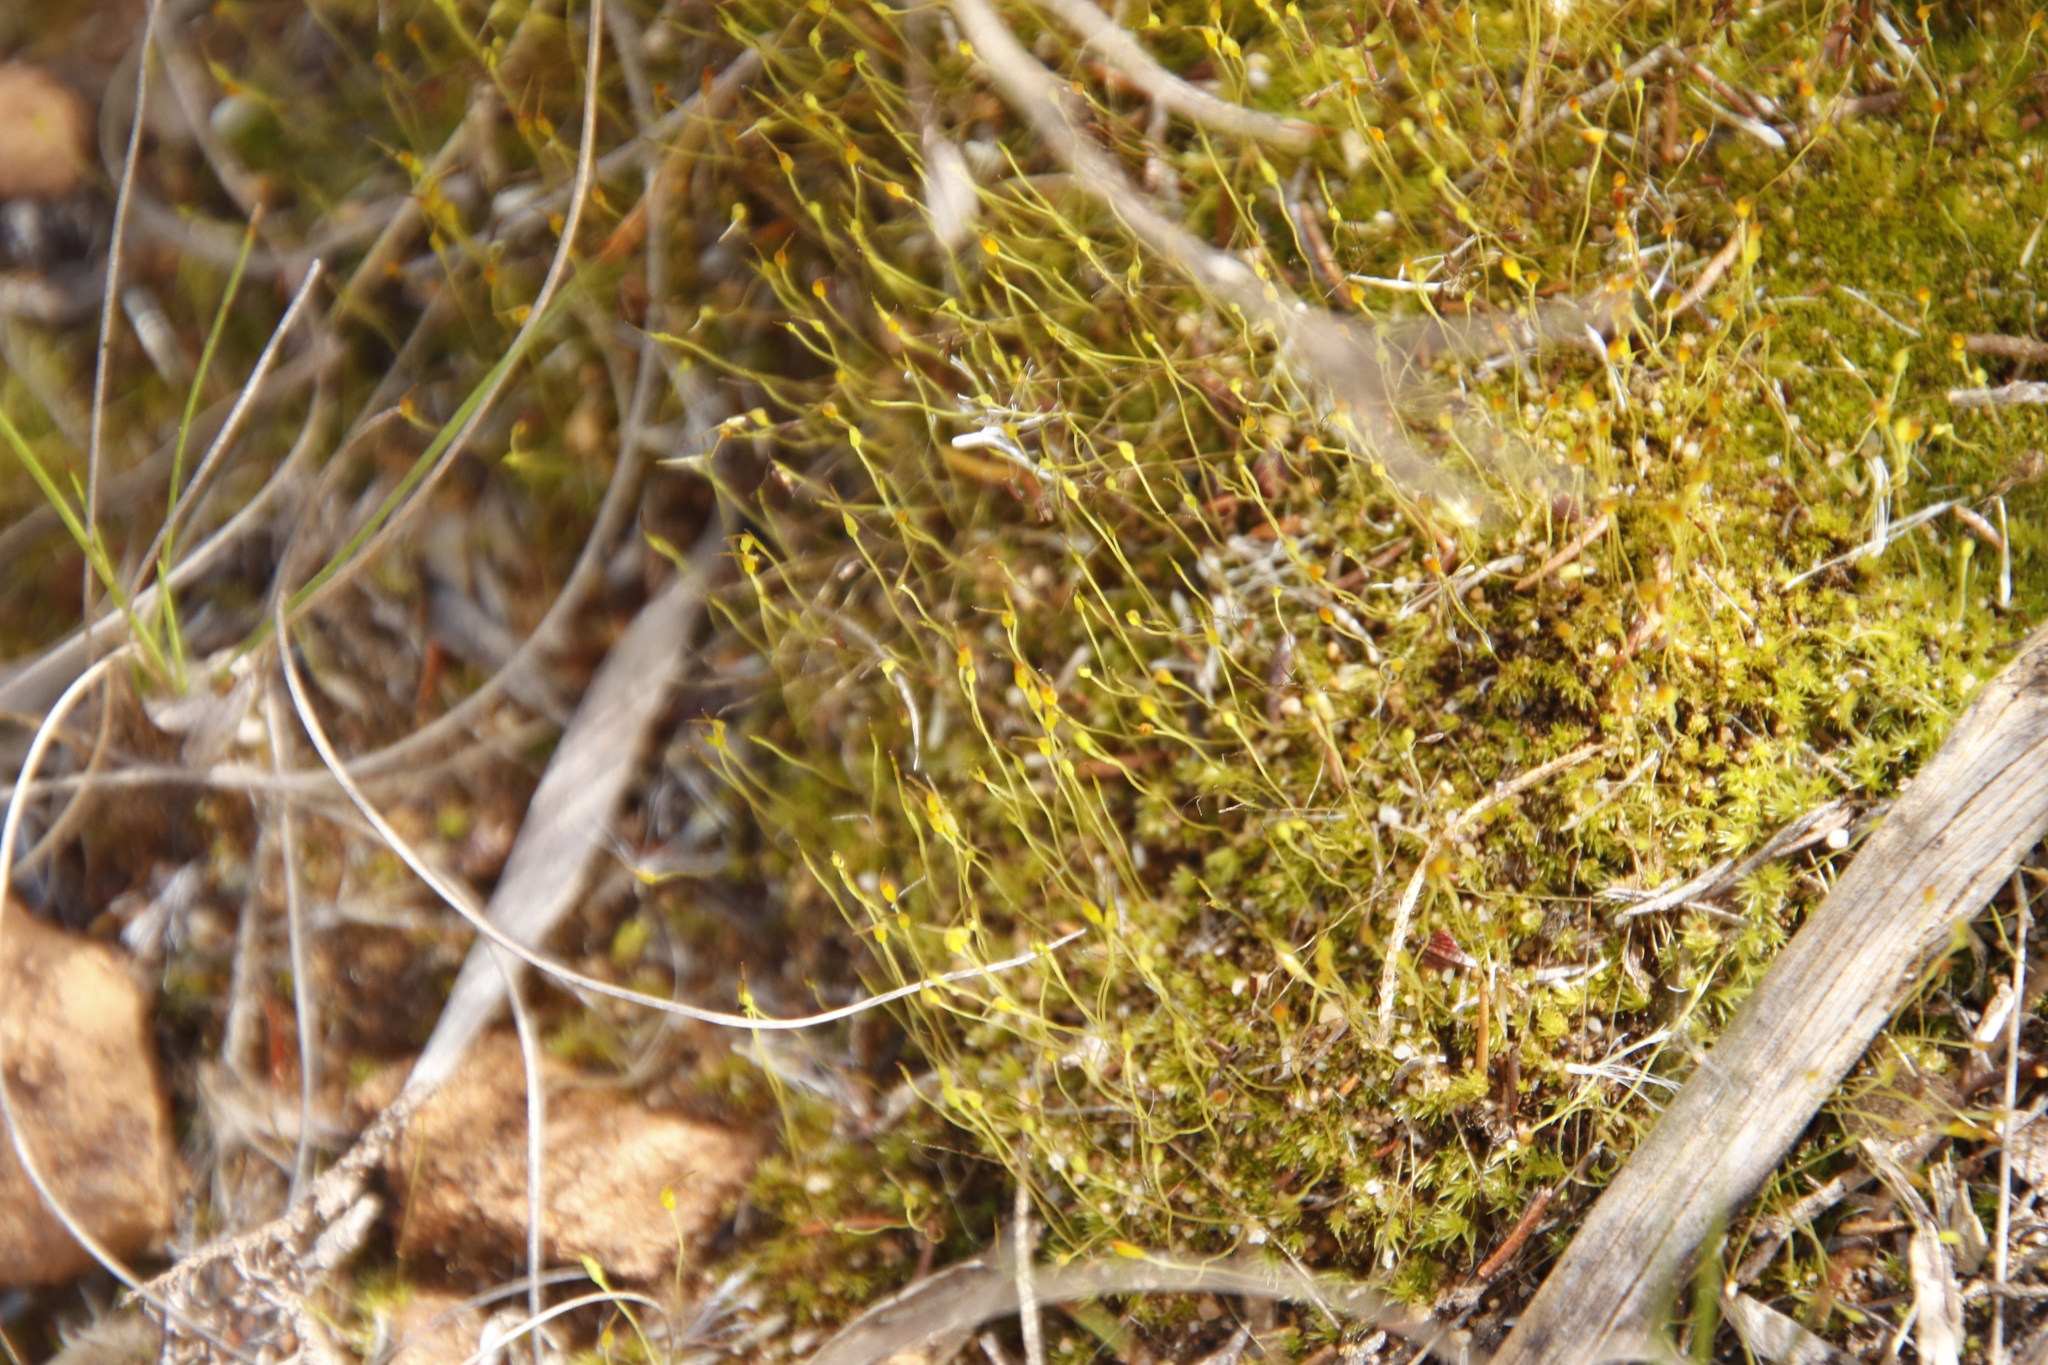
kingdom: Plantae
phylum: Bryophyta
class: Bryopsida
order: Dicranales
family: Ditrichaceae
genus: Ceratodon
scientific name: Ceratodon purpureus
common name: Redshank
